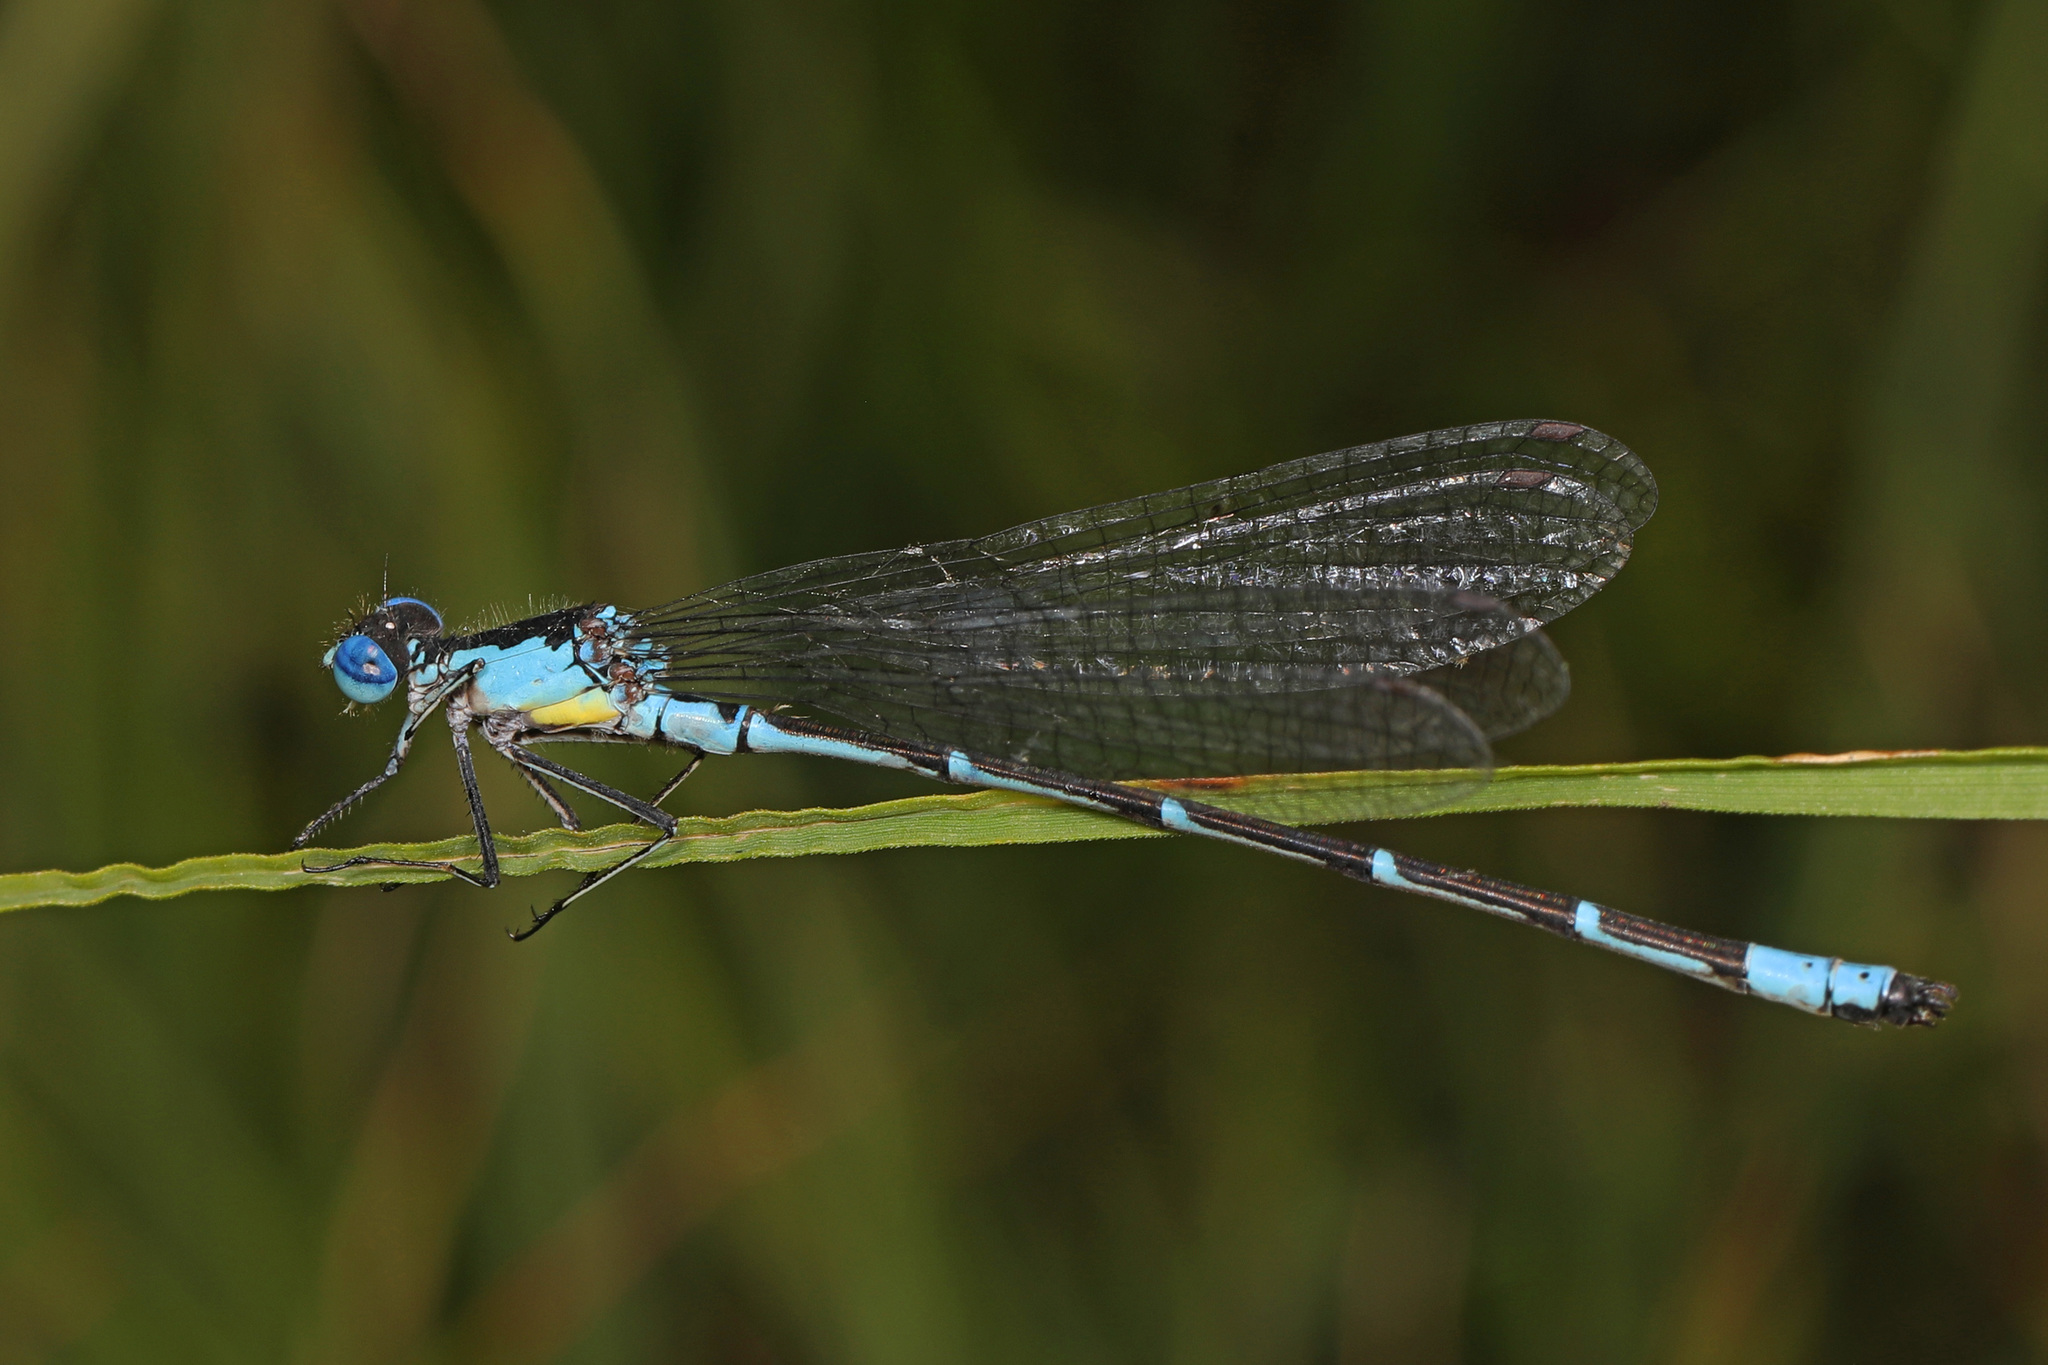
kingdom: Animalia
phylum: Arthropoda
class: Insecta
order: Odonata
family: Coenagrionidae
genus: Chromagrion
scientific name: Chromagrion conditum
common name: Aurora damsel
